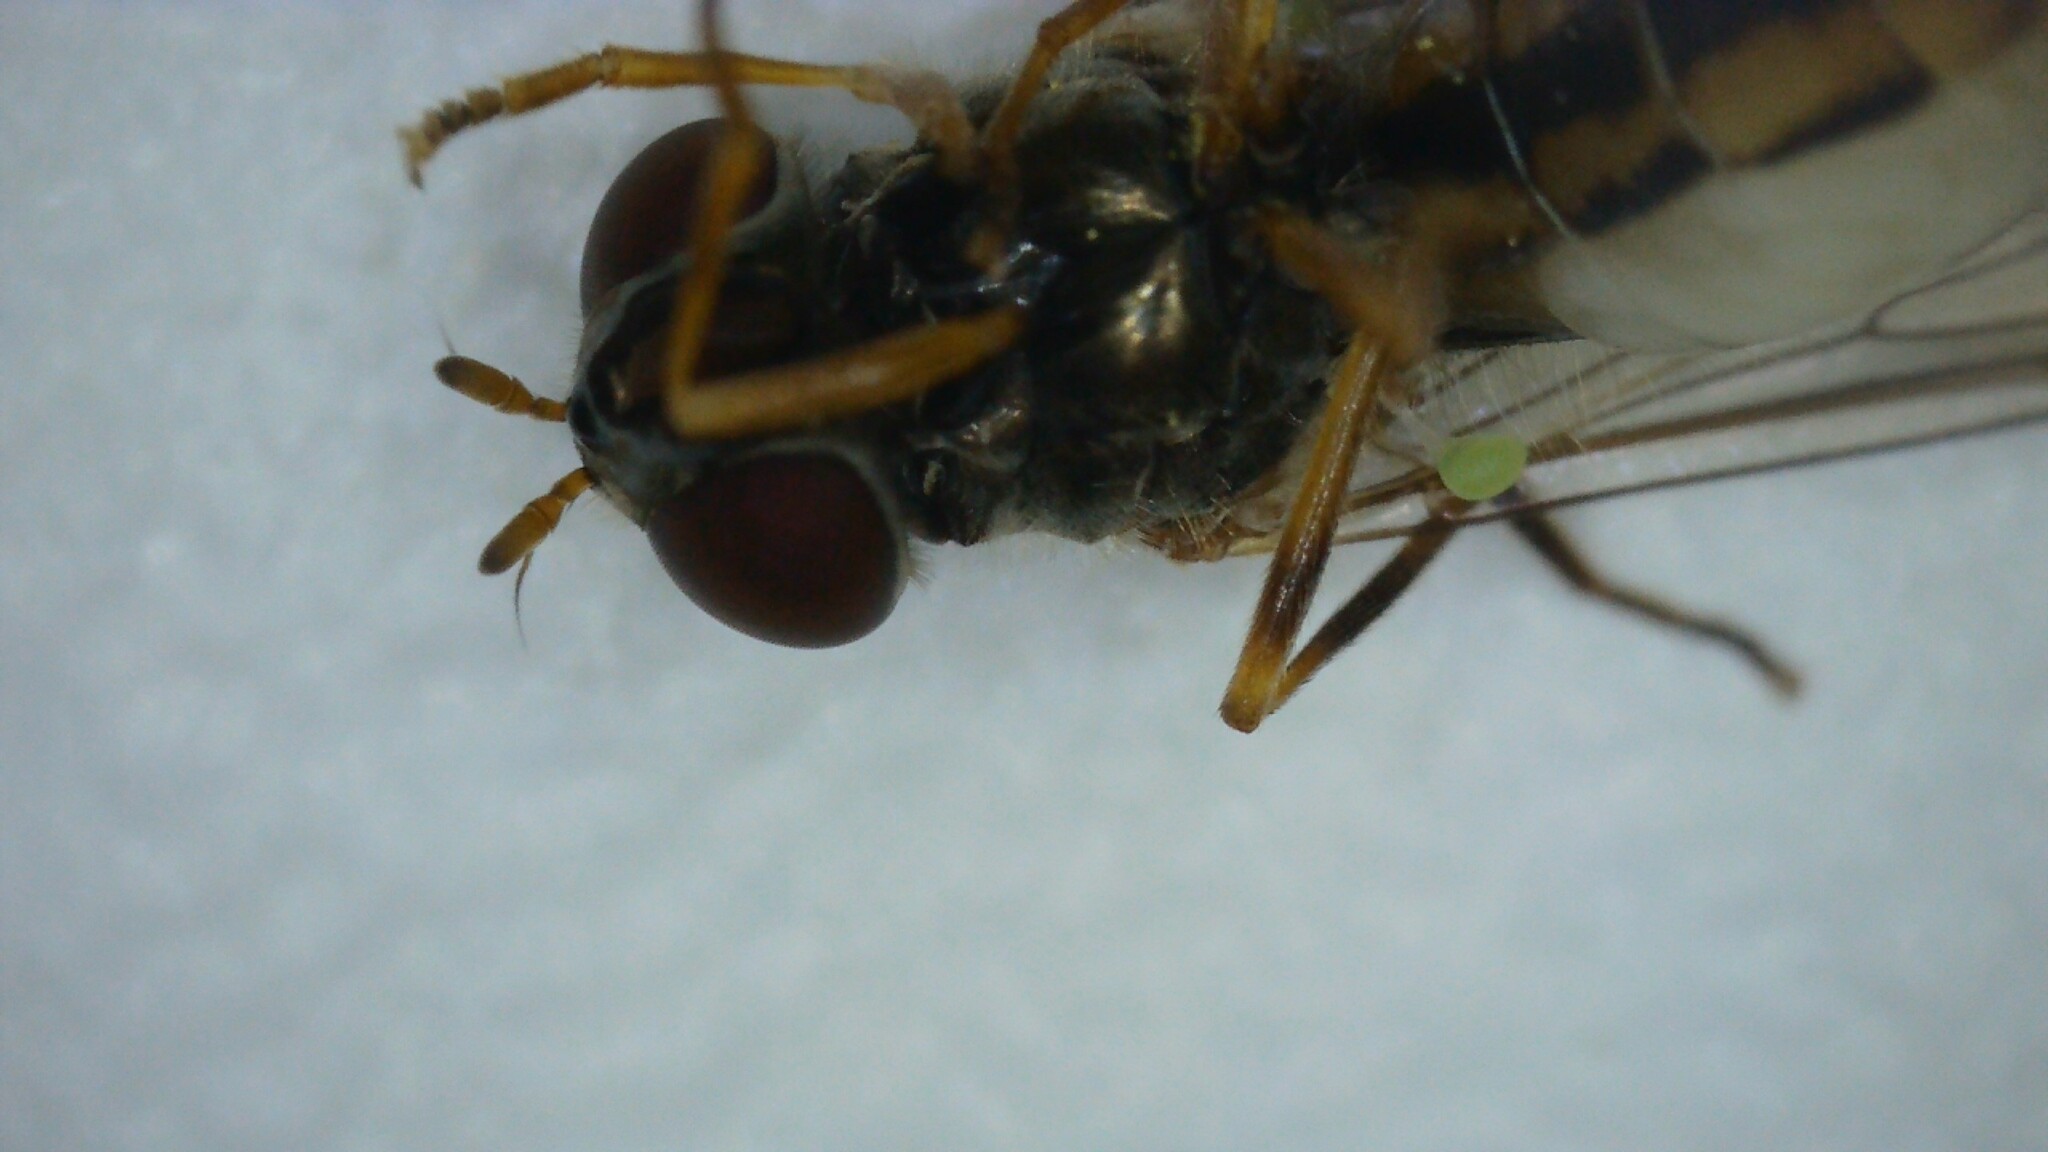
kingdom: Animalia
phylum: Arthropoda
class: Insecta
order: Diptera
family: Syrphidae
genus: Melanostoma
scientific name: Melanostoma scalare
